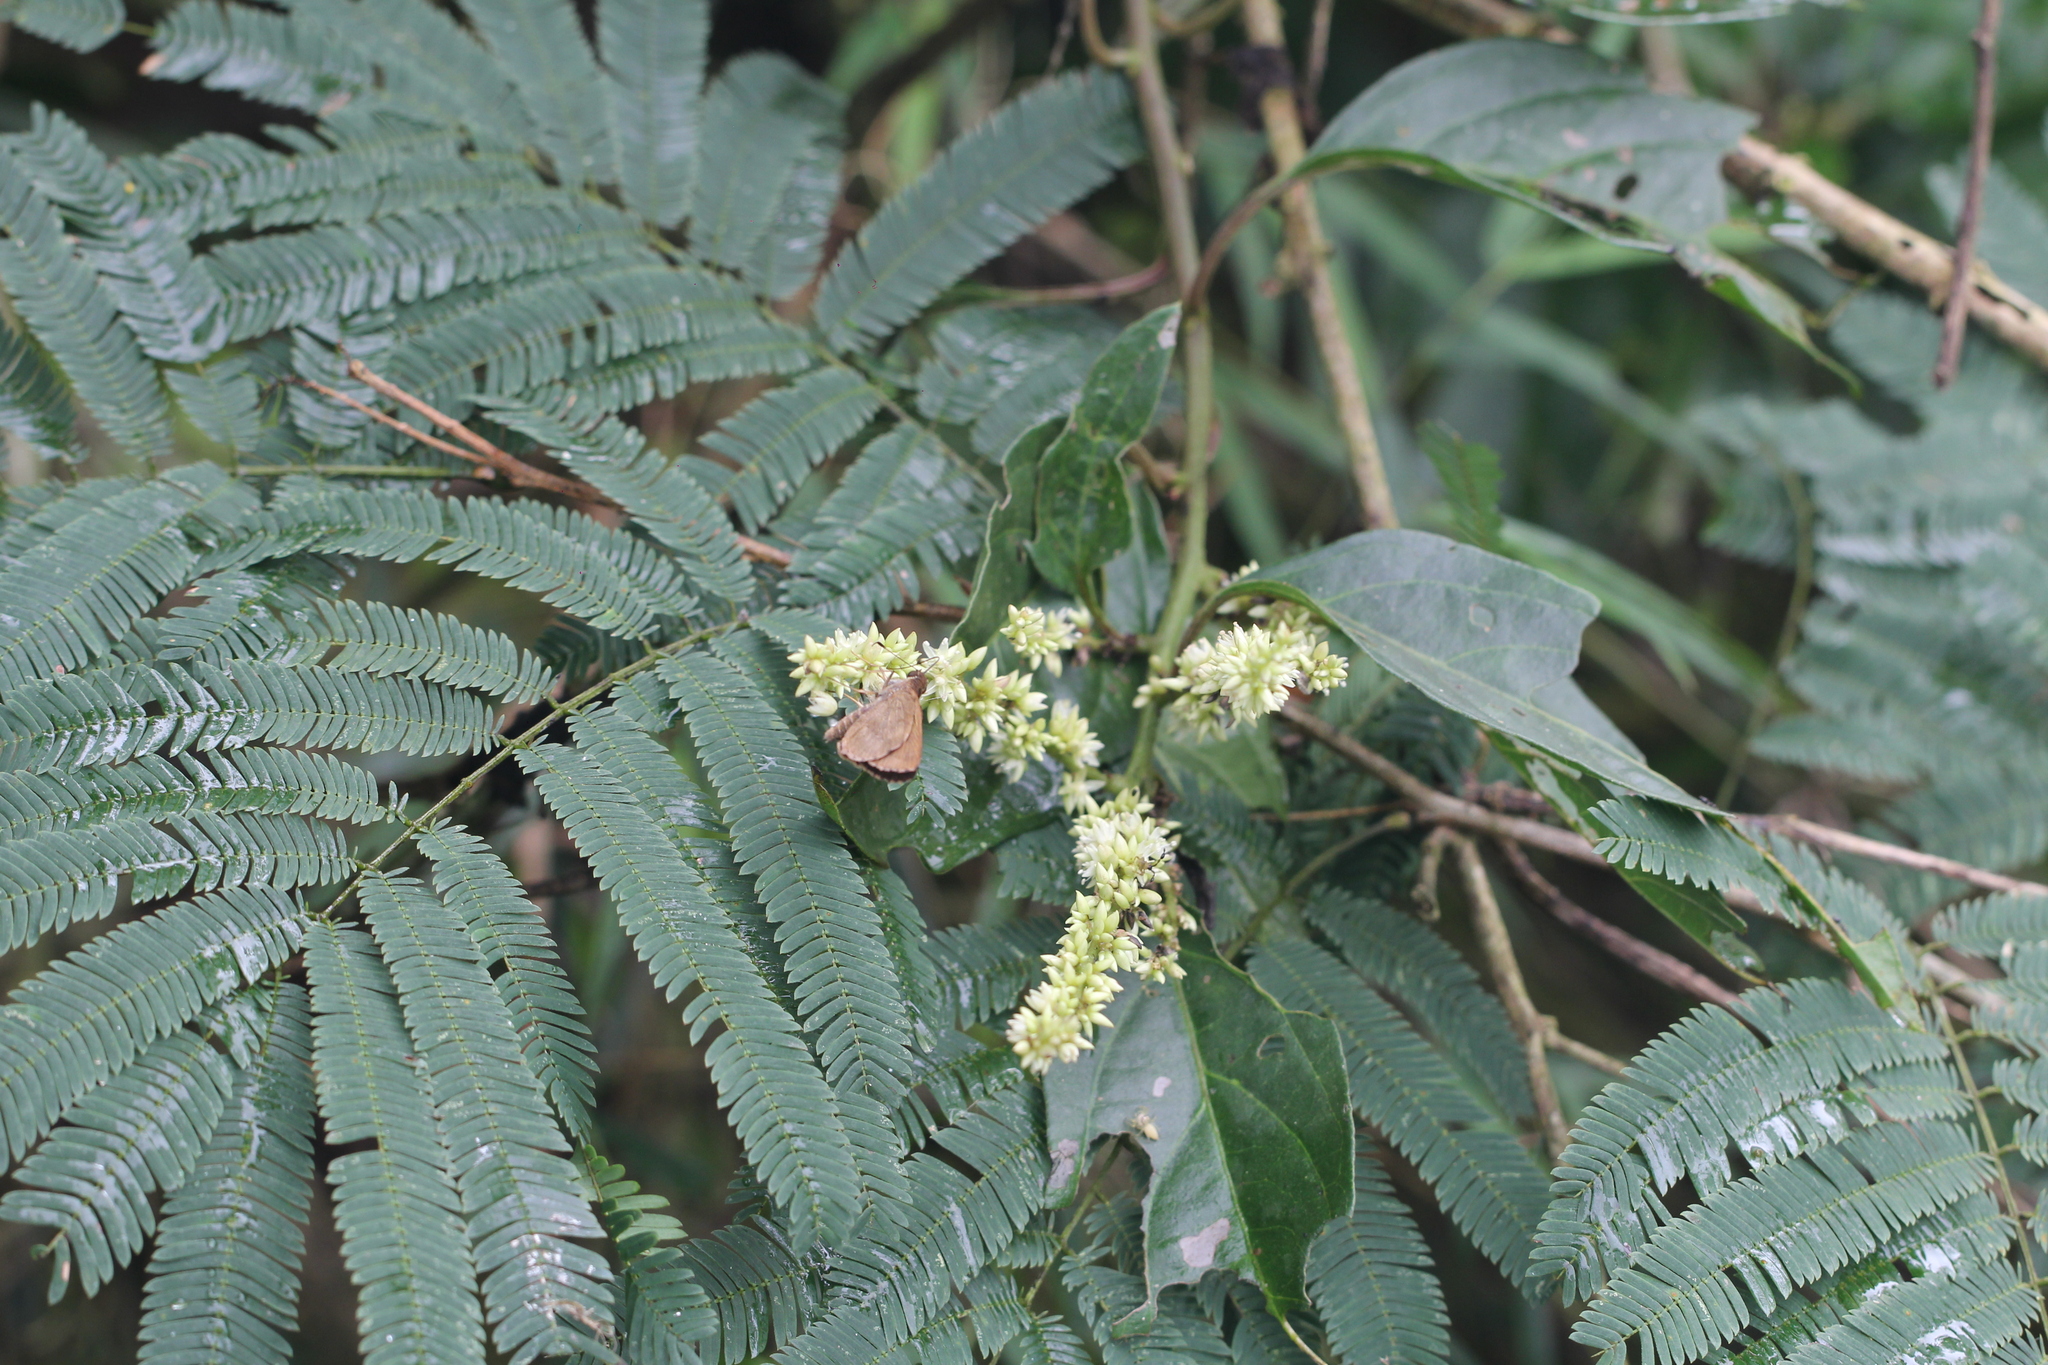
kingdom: Plantae
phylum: Tracheophyta
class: Magnoliopsida
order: Caryophyllales
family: Amaranthaceae
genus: Chamissoa
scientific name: Chamissoa altissima
